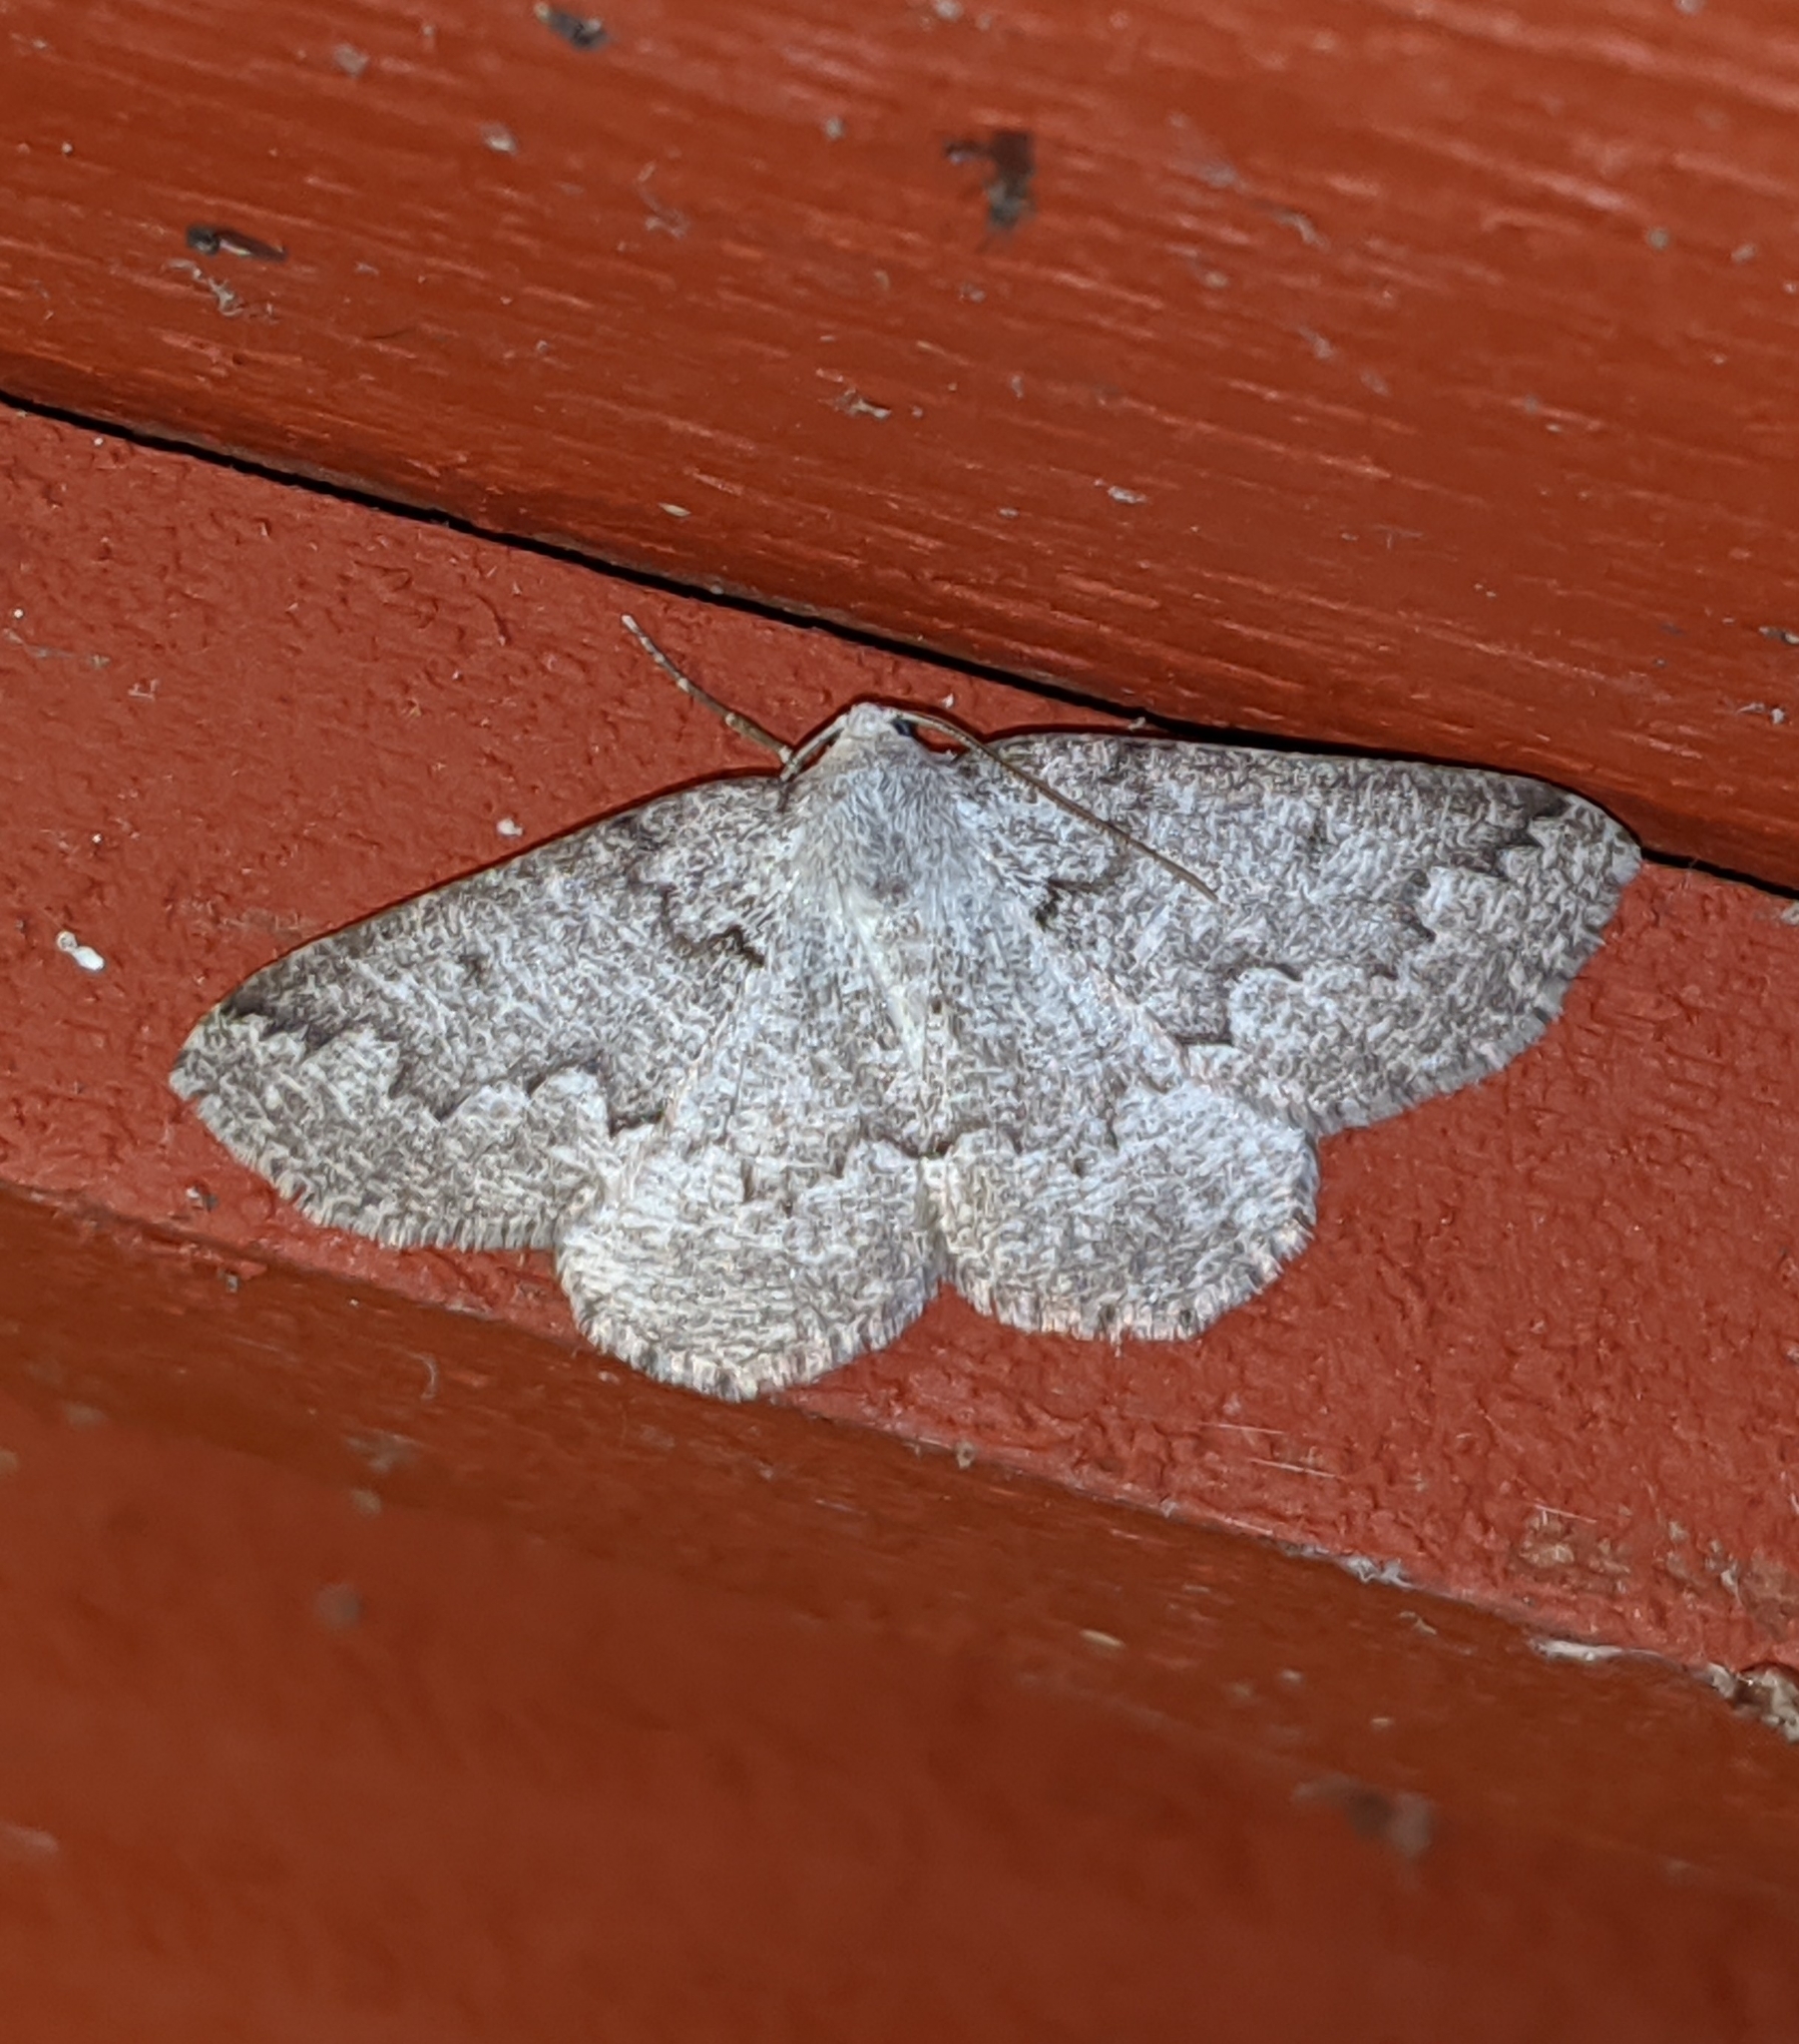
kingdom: Animalia
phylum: Arthropoda
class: Insecta
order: Lepidoptera
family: Geometridae
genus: Sabulodes
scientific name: Sabulodes
